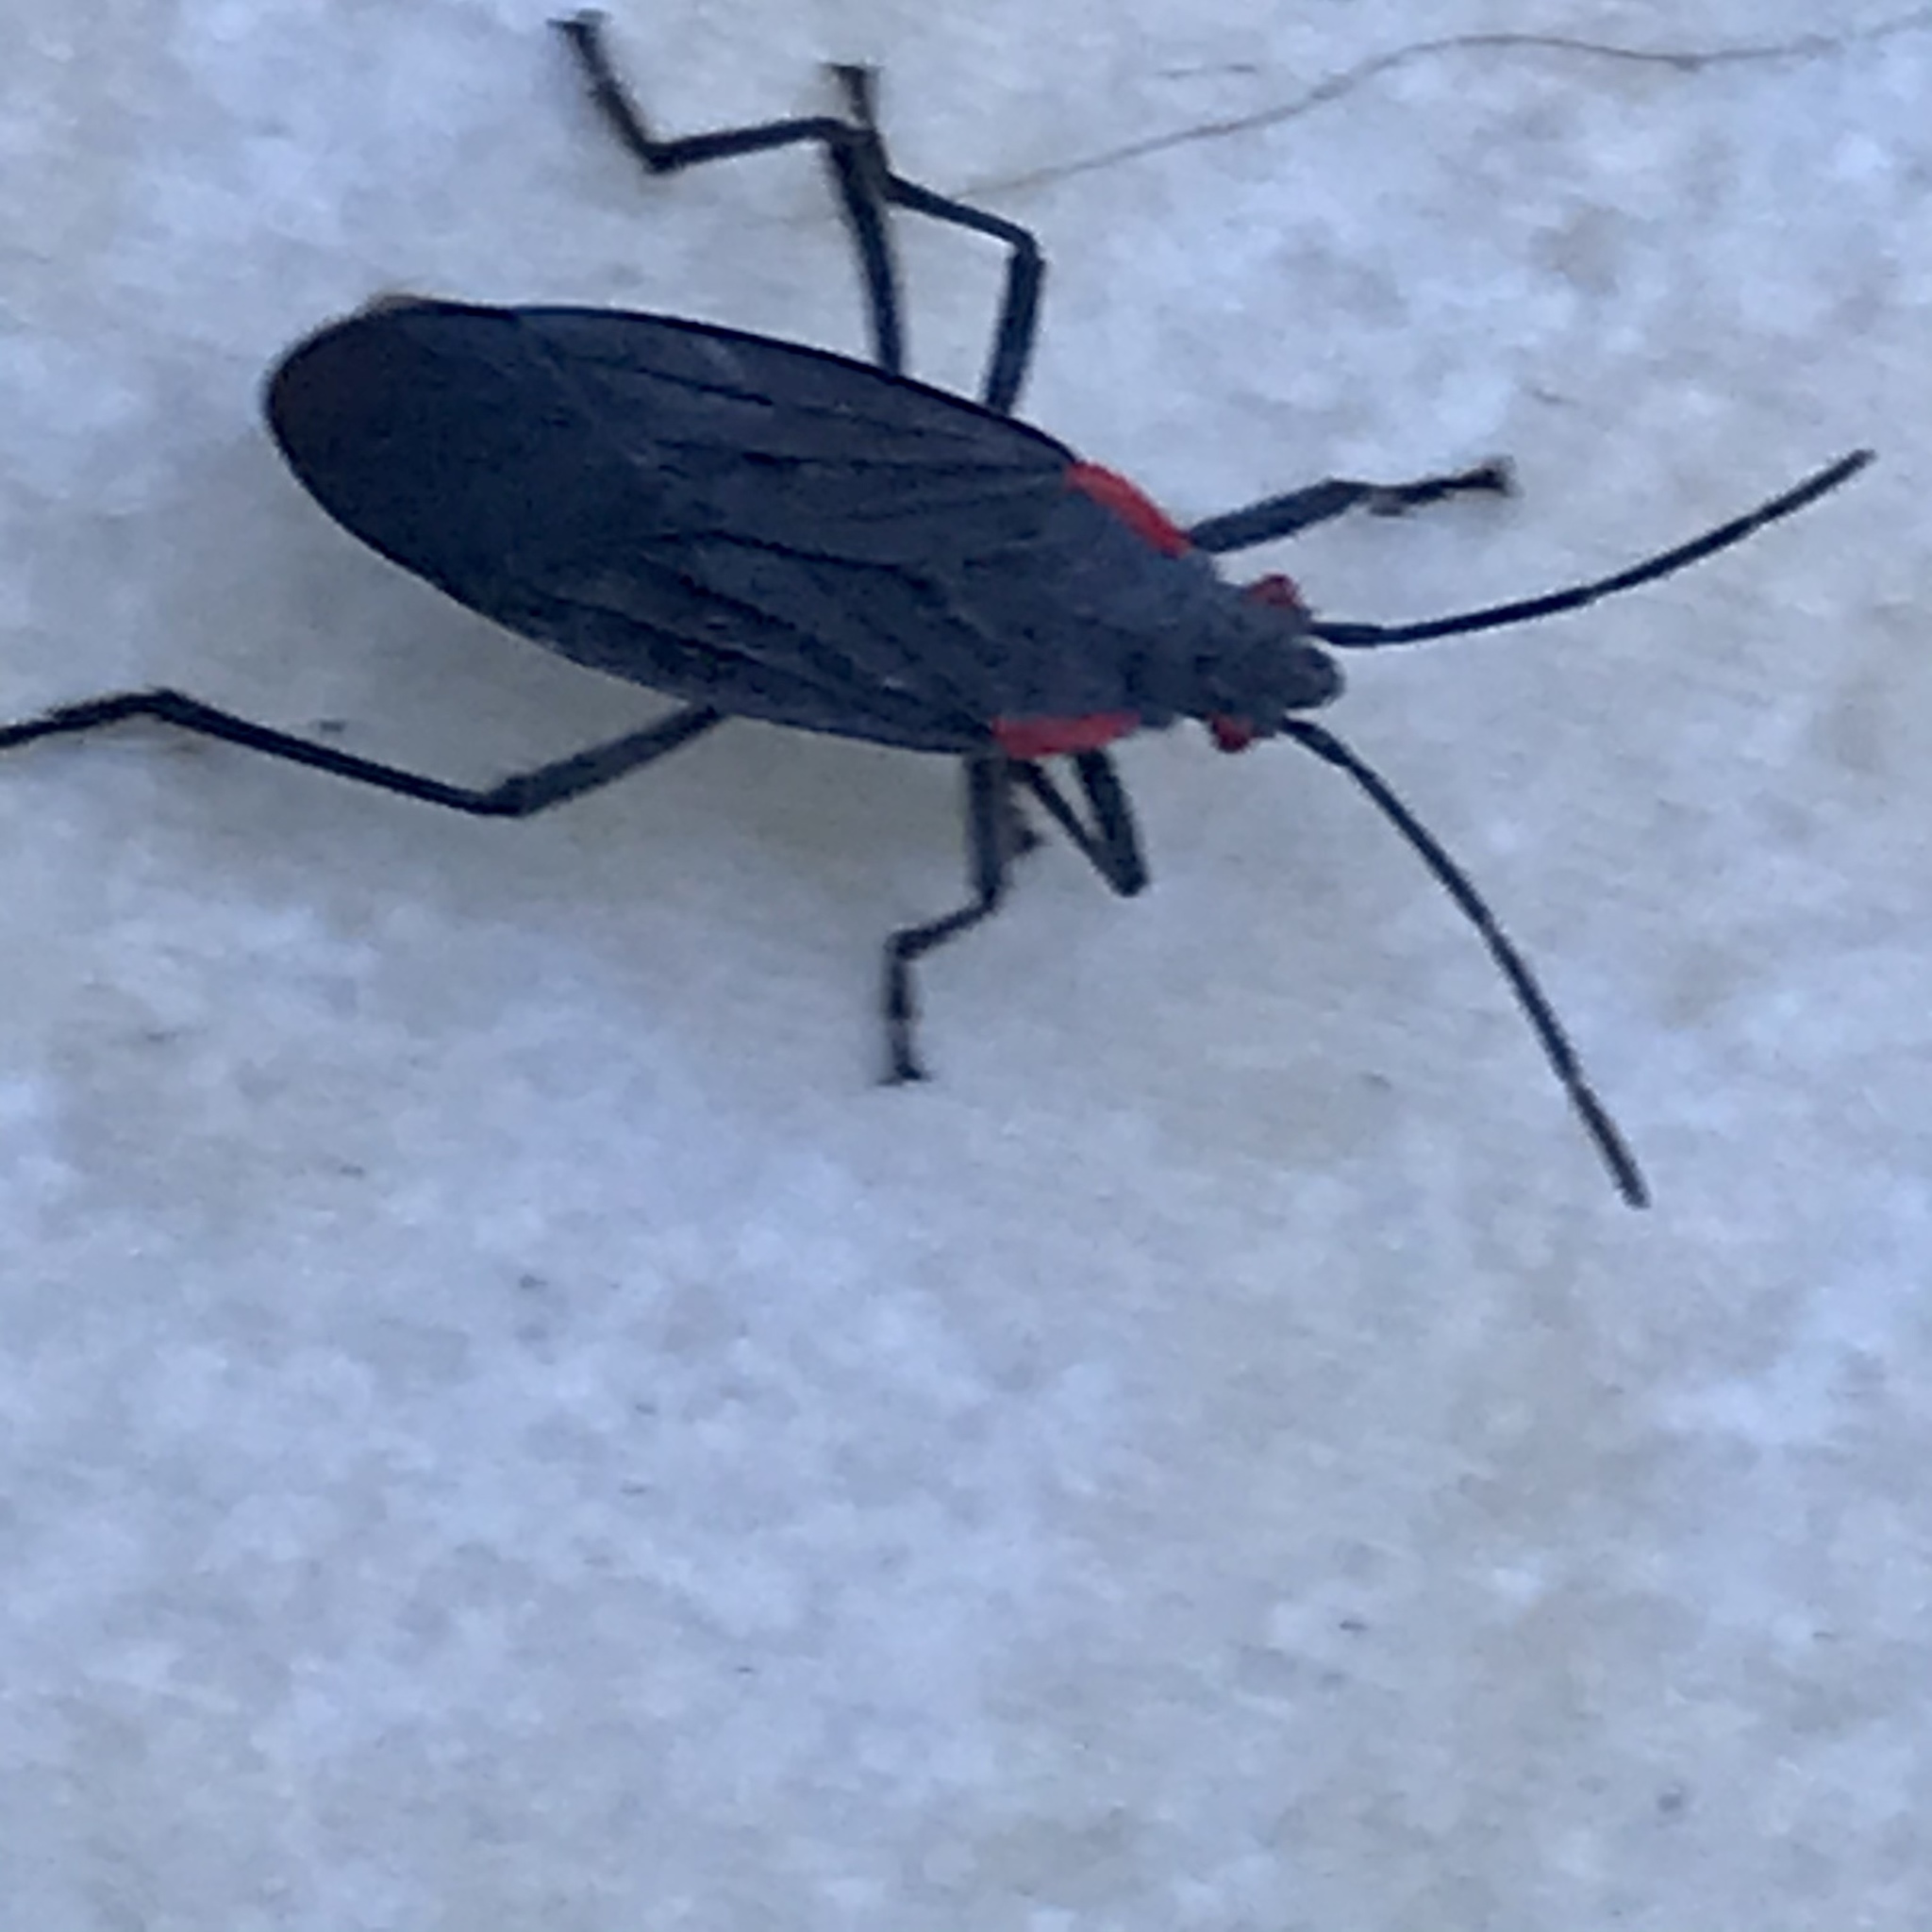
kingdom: Animalia
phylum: Arthropoda
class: Insecta
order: Hemiptera
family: Rhopalidae
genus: Jadera
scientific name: Jadera haematoloma
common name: Red-shouldered bug
